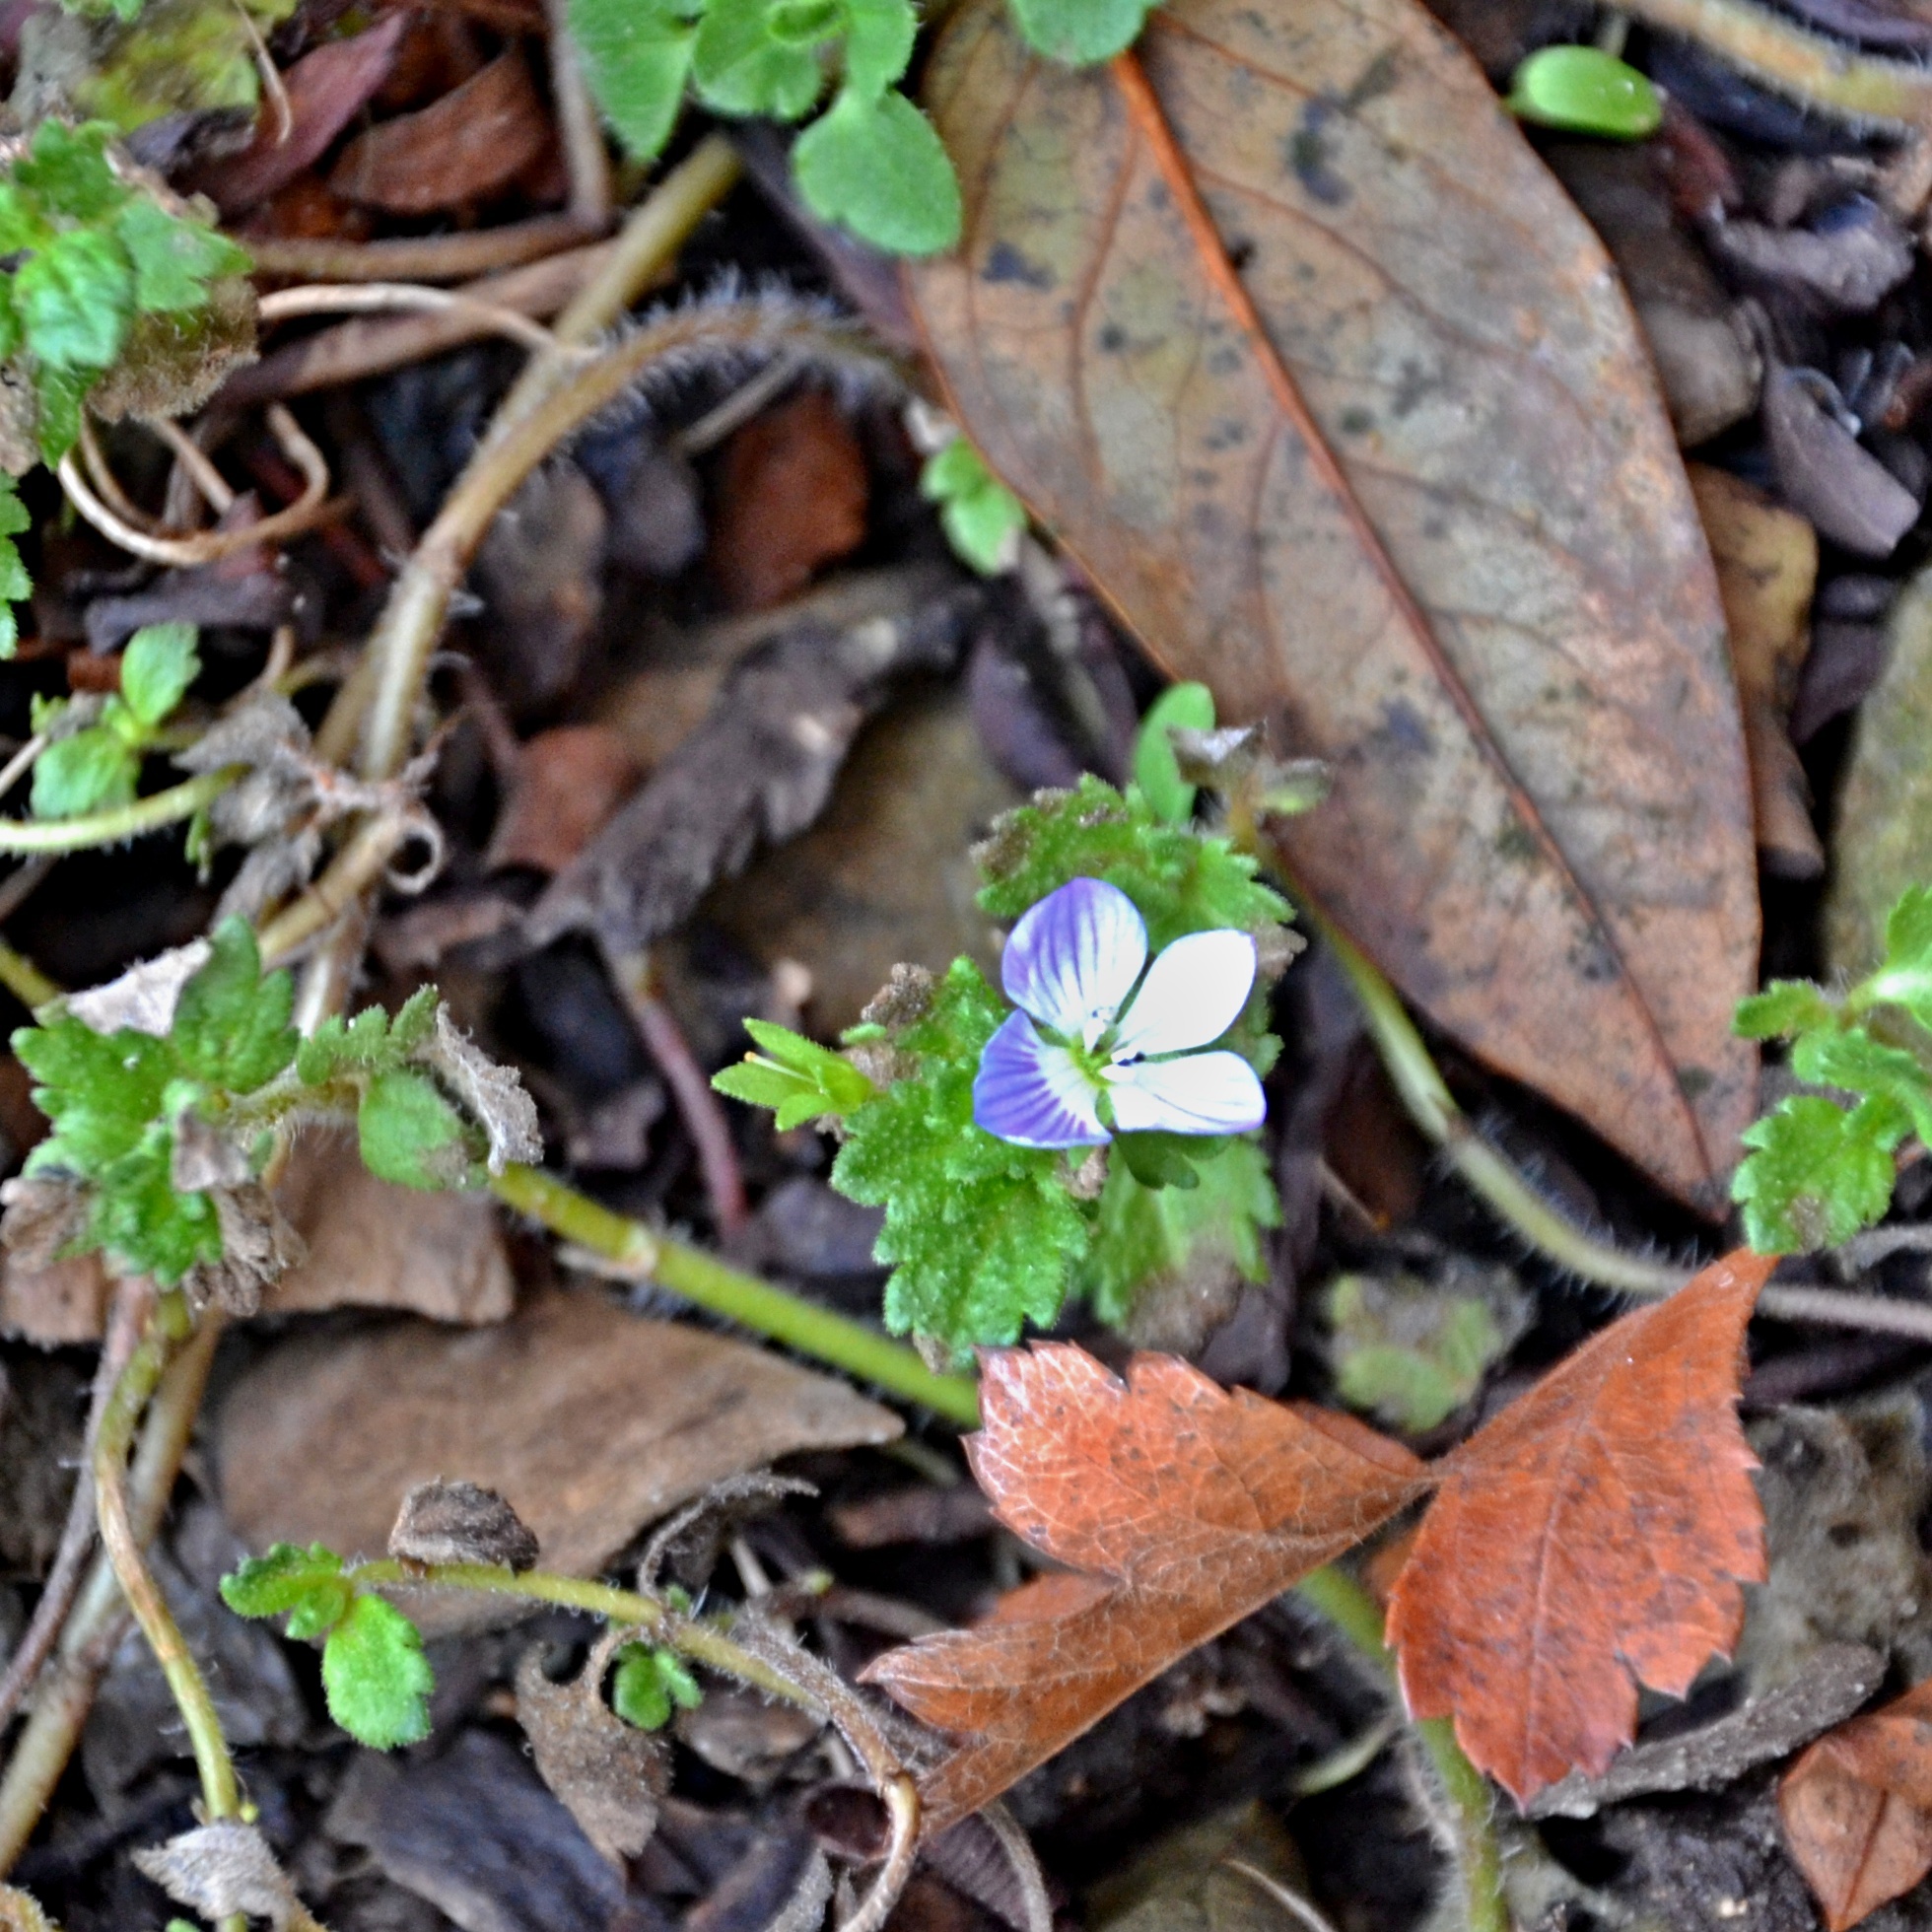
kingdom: Plantae
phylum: Tracheophyta
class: Magnoliopsida
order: Lamiales
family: Plantaginaceae
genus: Veronica
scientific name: Veronica persica
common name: Common field-speedwell
